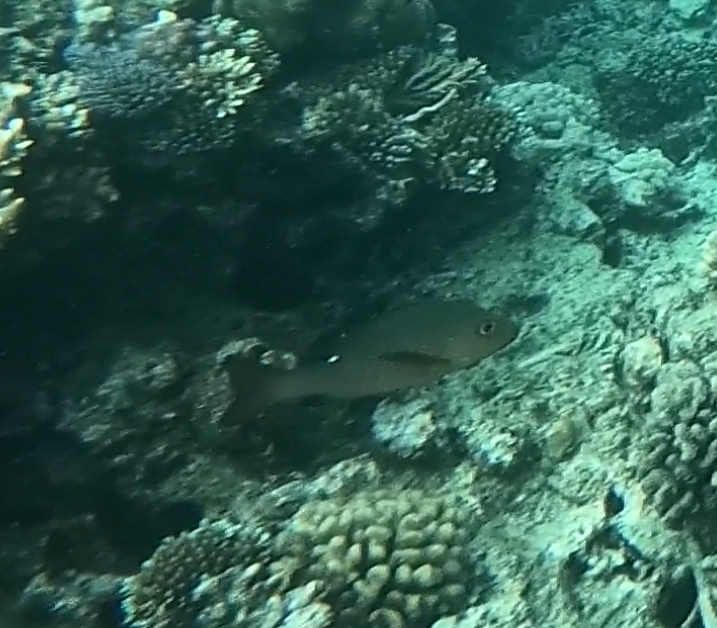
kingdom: Animalia
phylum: Chordata
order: Perciformes
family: Lutjanidae
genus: Lutjanus
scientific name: Lutjanus bohar
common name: Red bass
